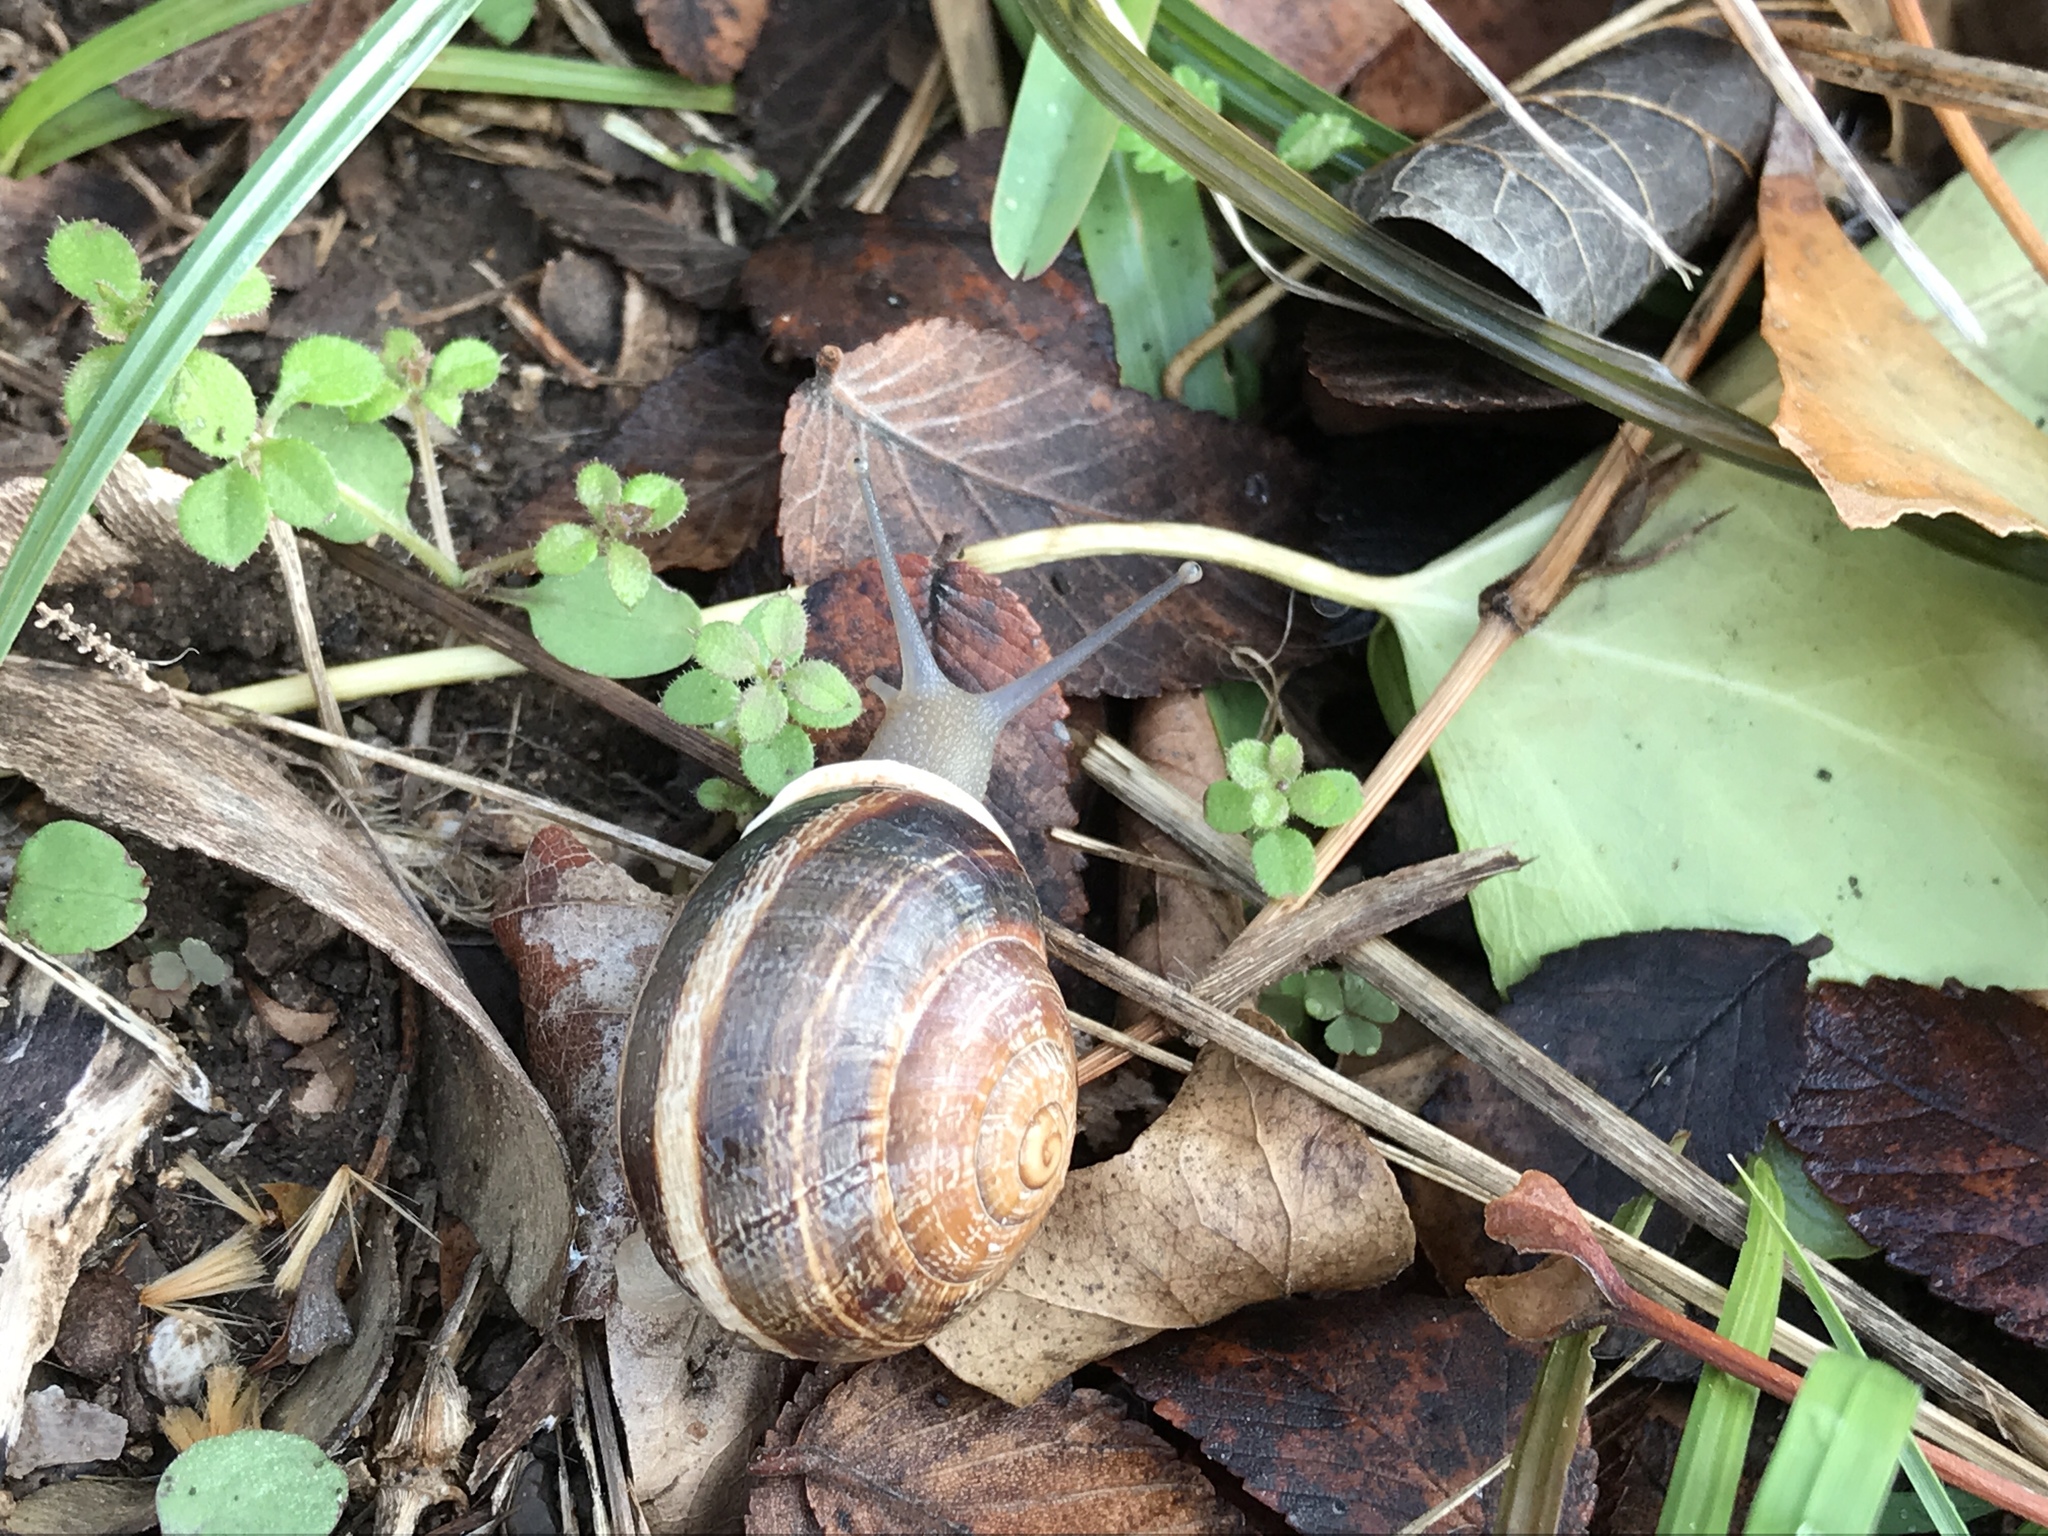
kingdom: Animalia
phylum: Mollusca
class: Gastropoda
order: Stylommatophora
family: Helicidae
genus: Otala
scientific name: Otala lactea
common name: Milk snail
